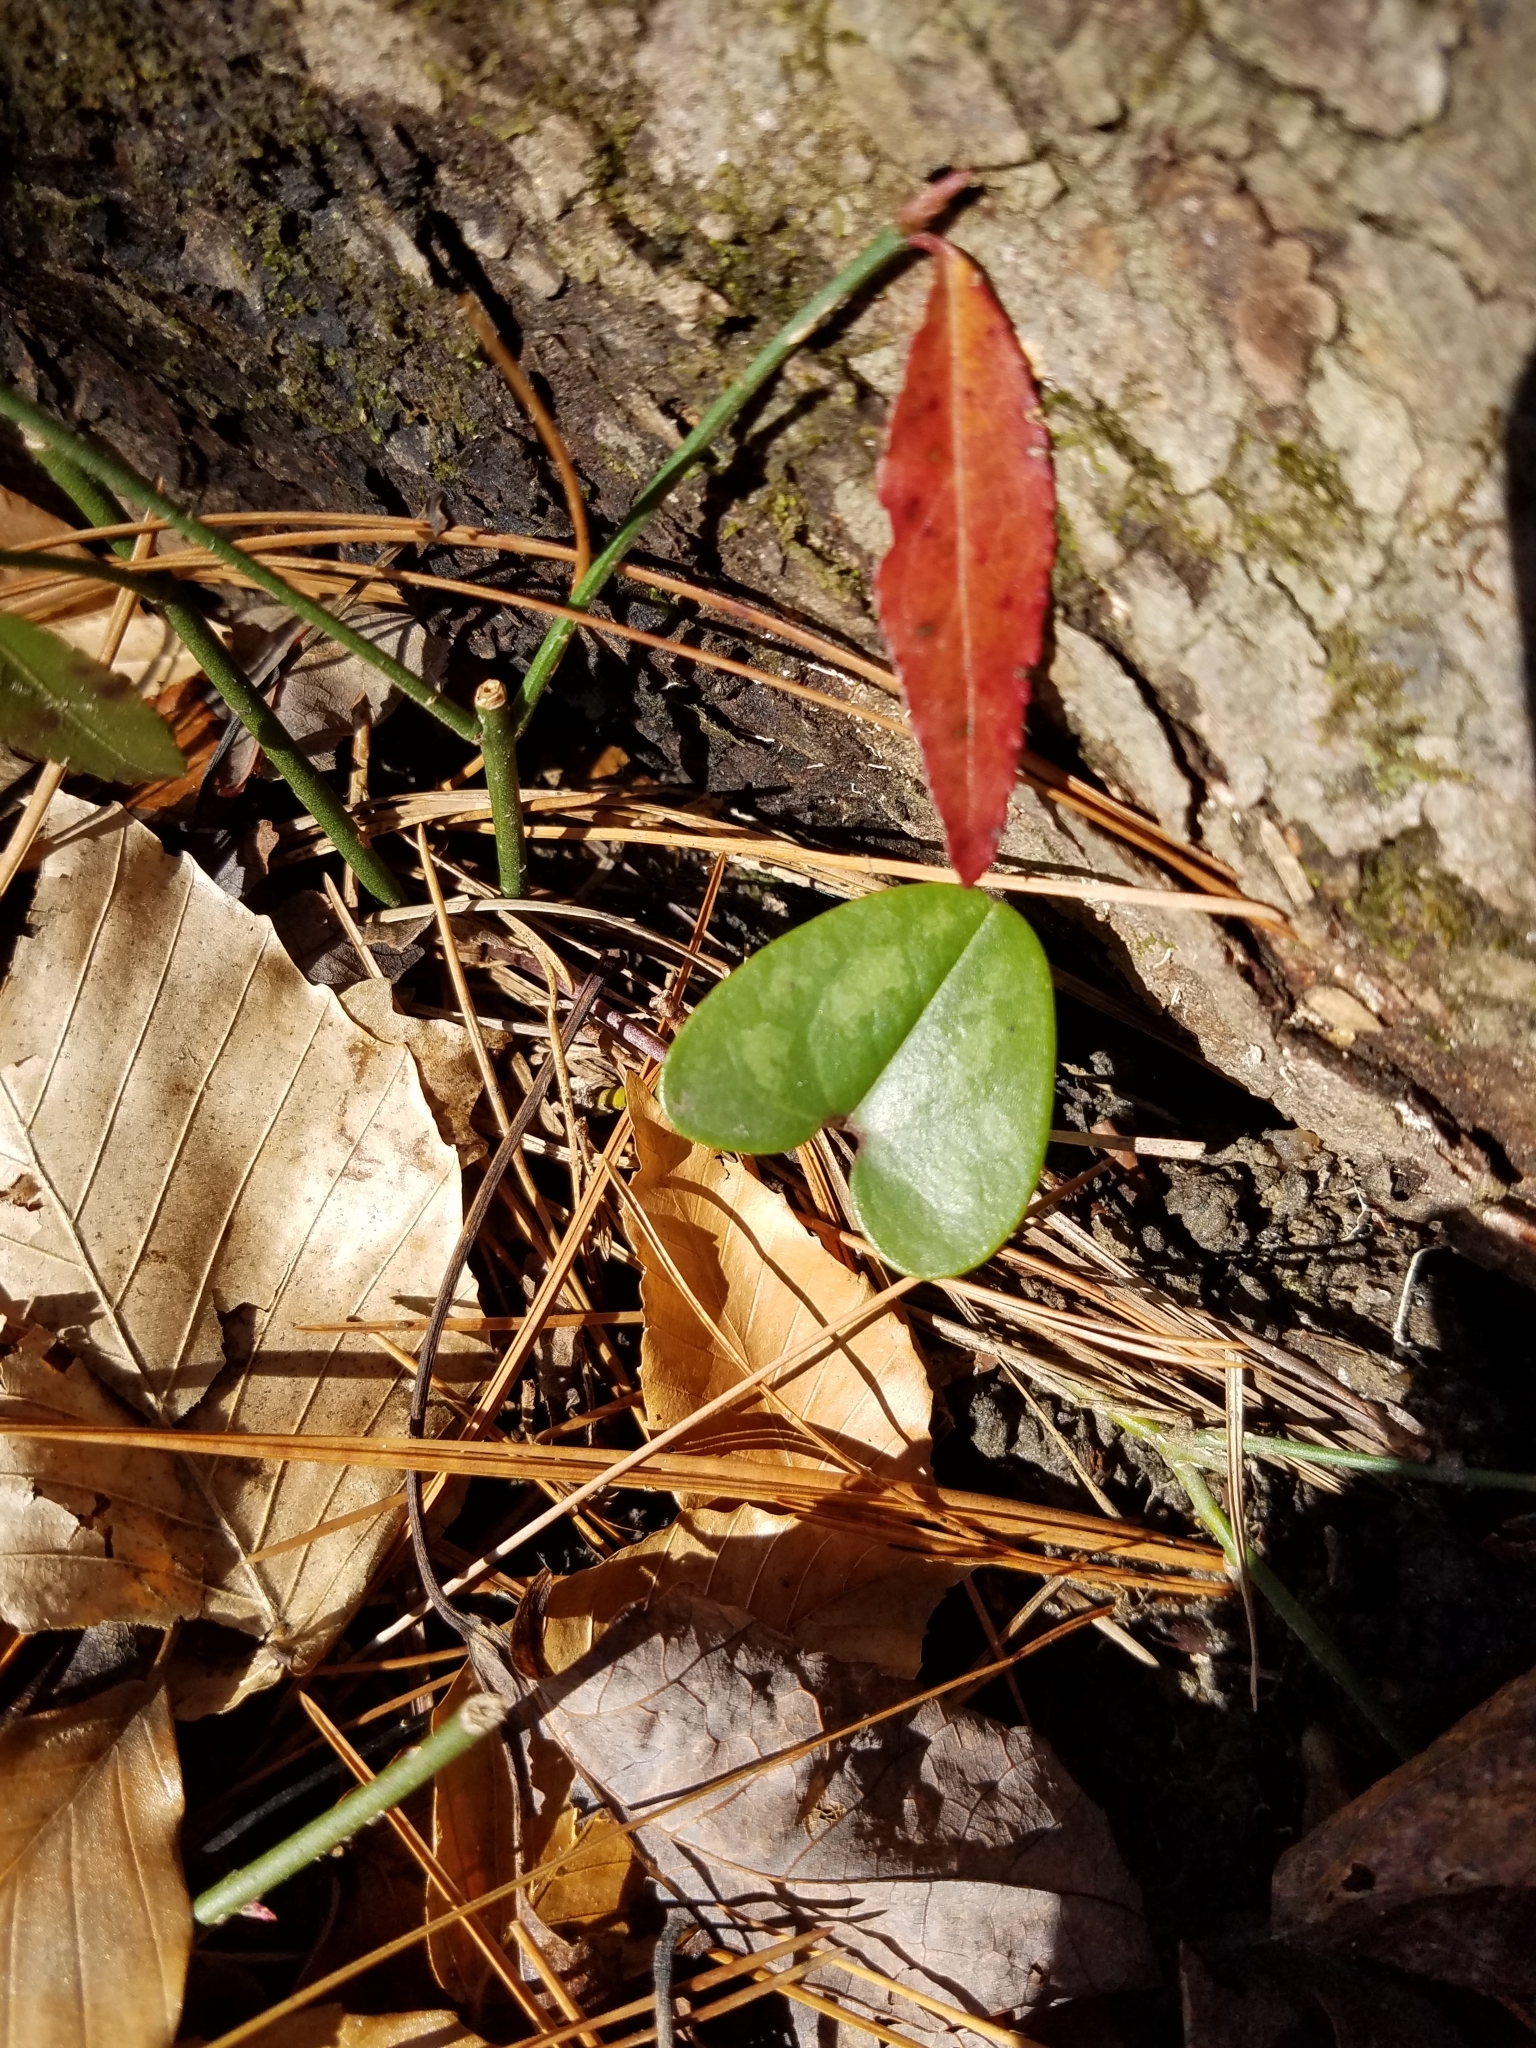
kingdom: Plantae
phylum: Tracheophyta
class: Magnoliopsida
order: Piperales
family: Aristolochiaceae
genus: Hexastylis
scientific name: Hexastylis arifolia
